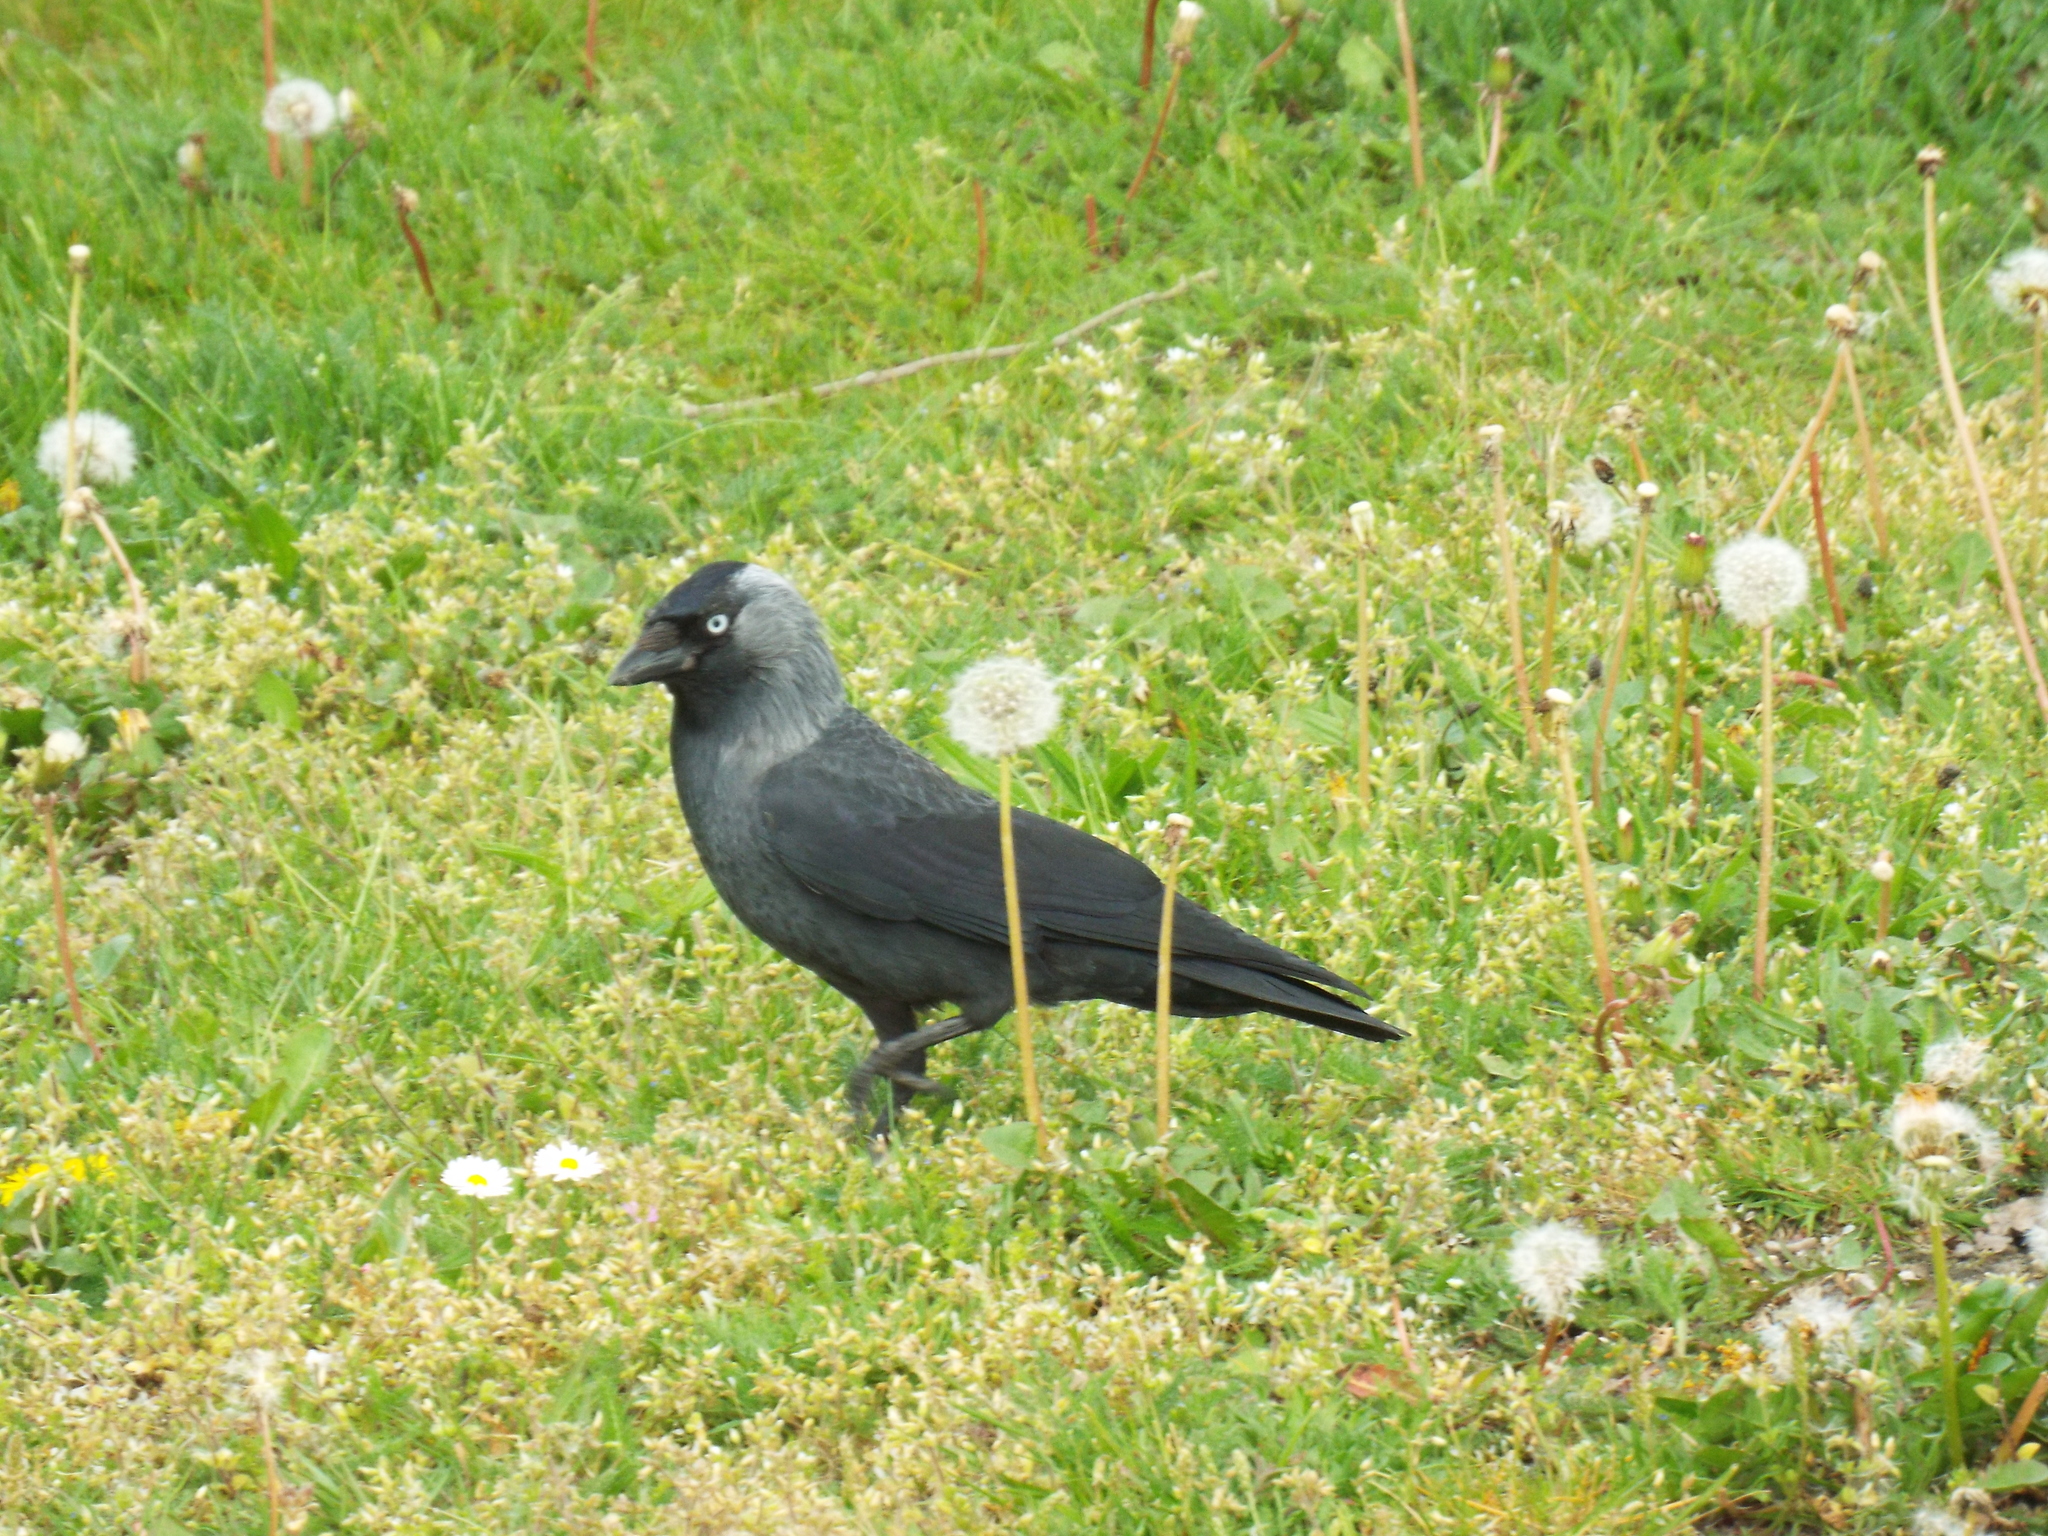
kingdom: Animalia
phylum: Chordata
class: Aves
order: Passeriformes
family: Corvidae
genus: Coloeus
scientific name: Coloeus monedula
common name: Western jackdaw
